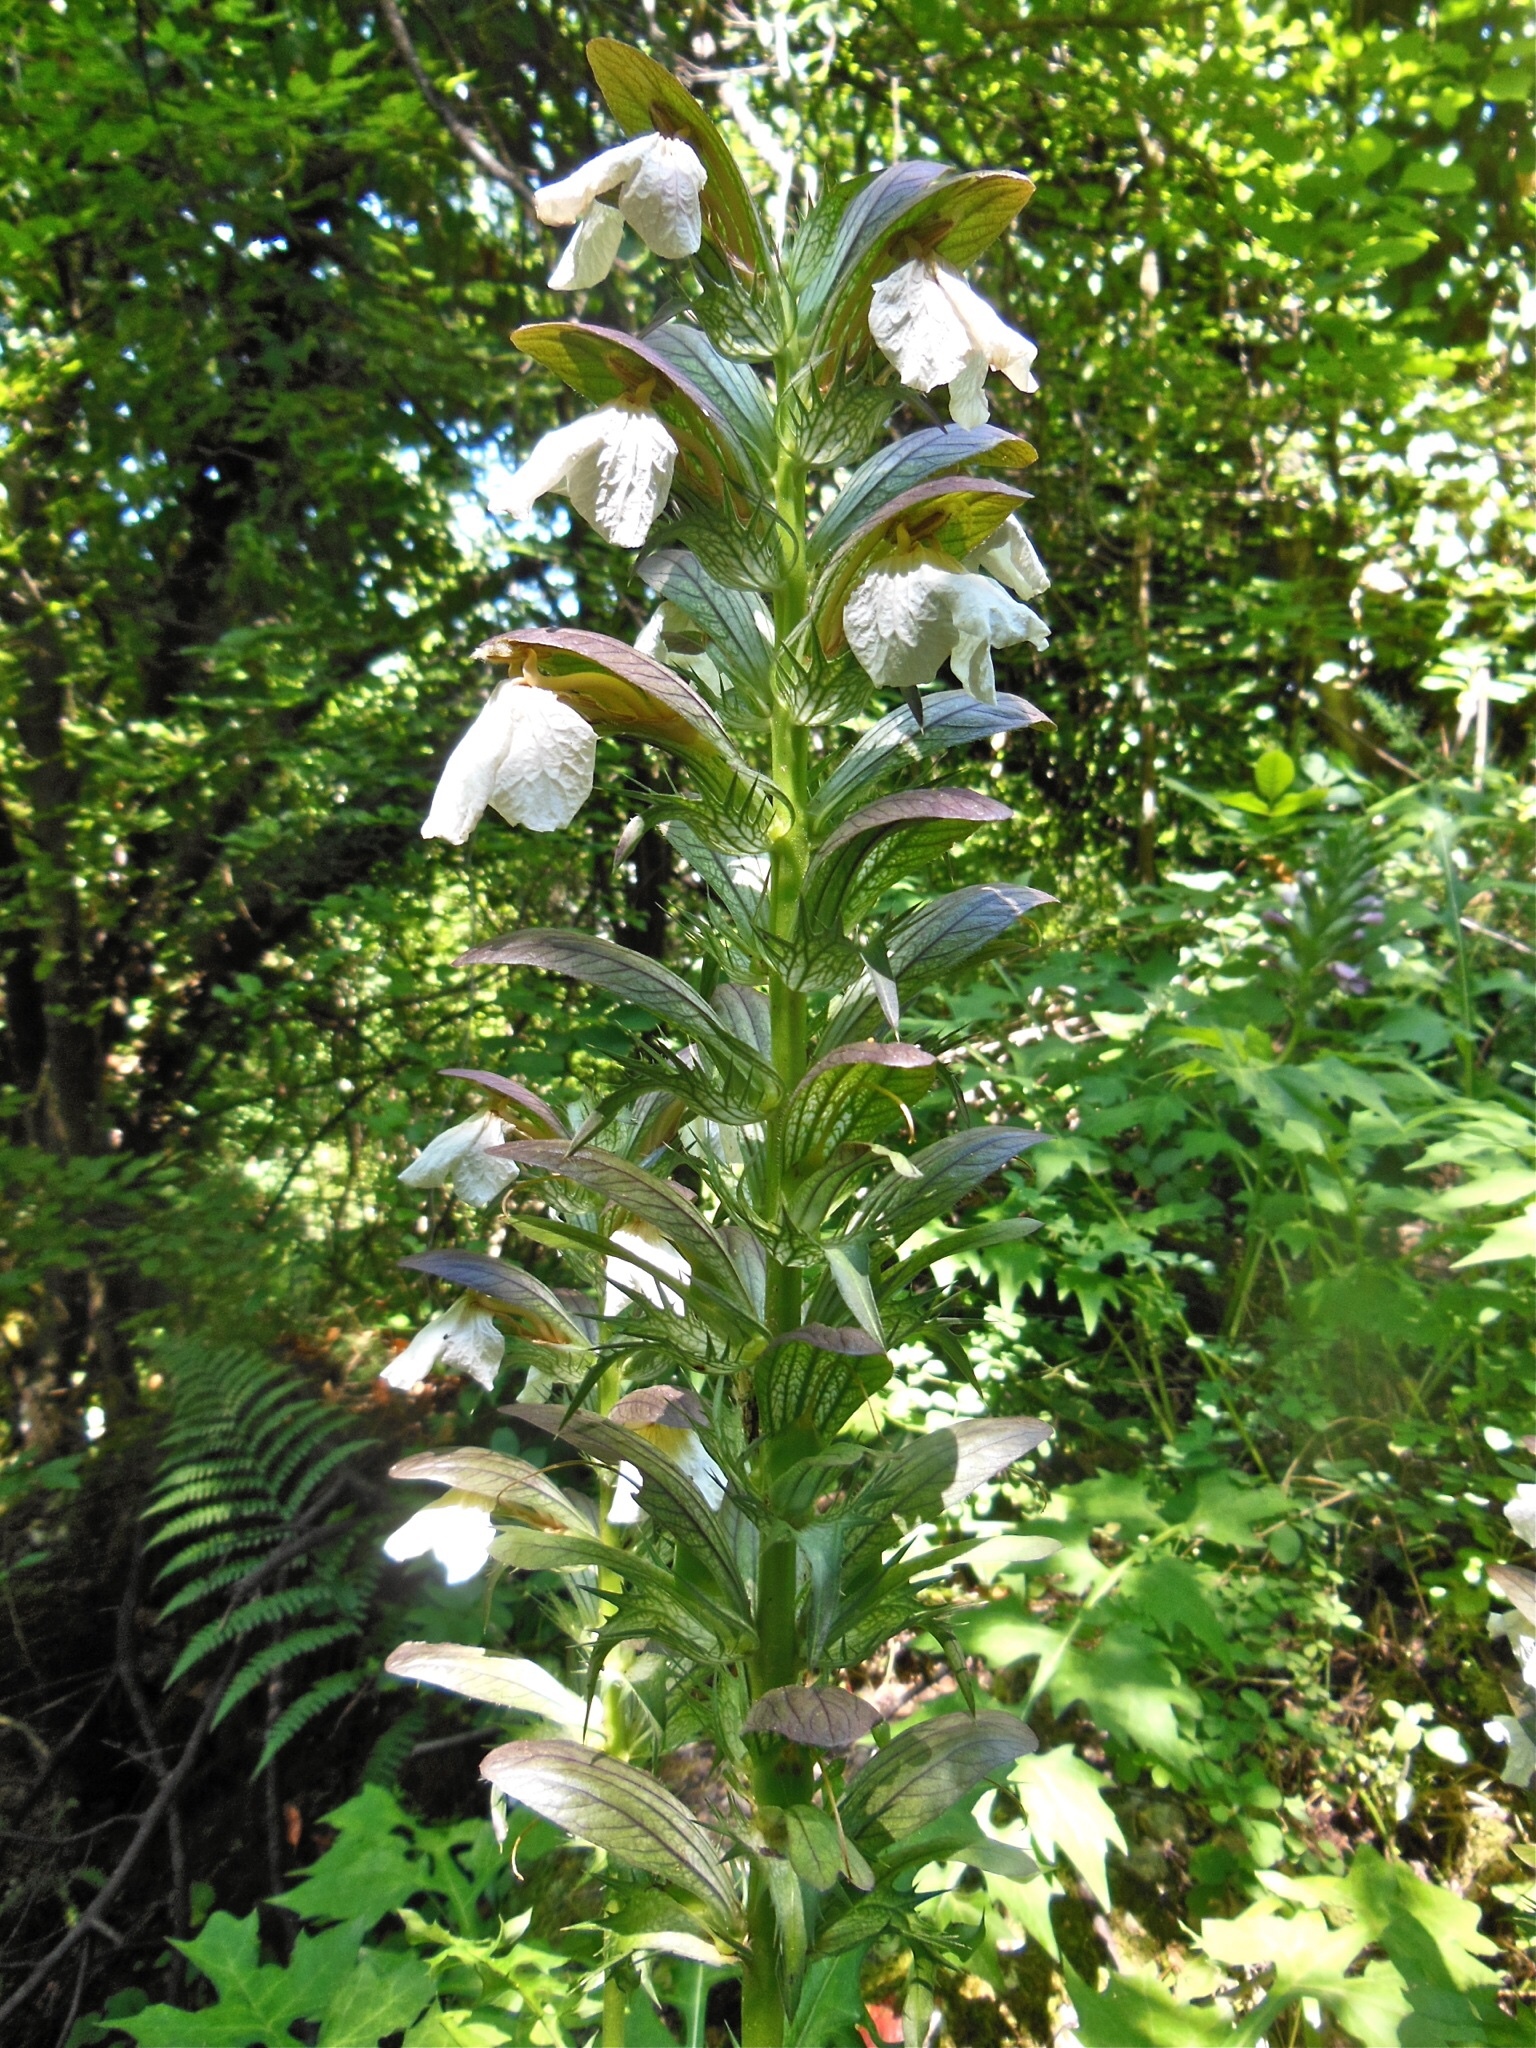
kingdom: Plantae
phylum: Tracheophyta
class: Magnoliopsida
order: Lamiales
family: Acanthaceae
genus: Acanthus
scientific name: Acanthus hungaricus
